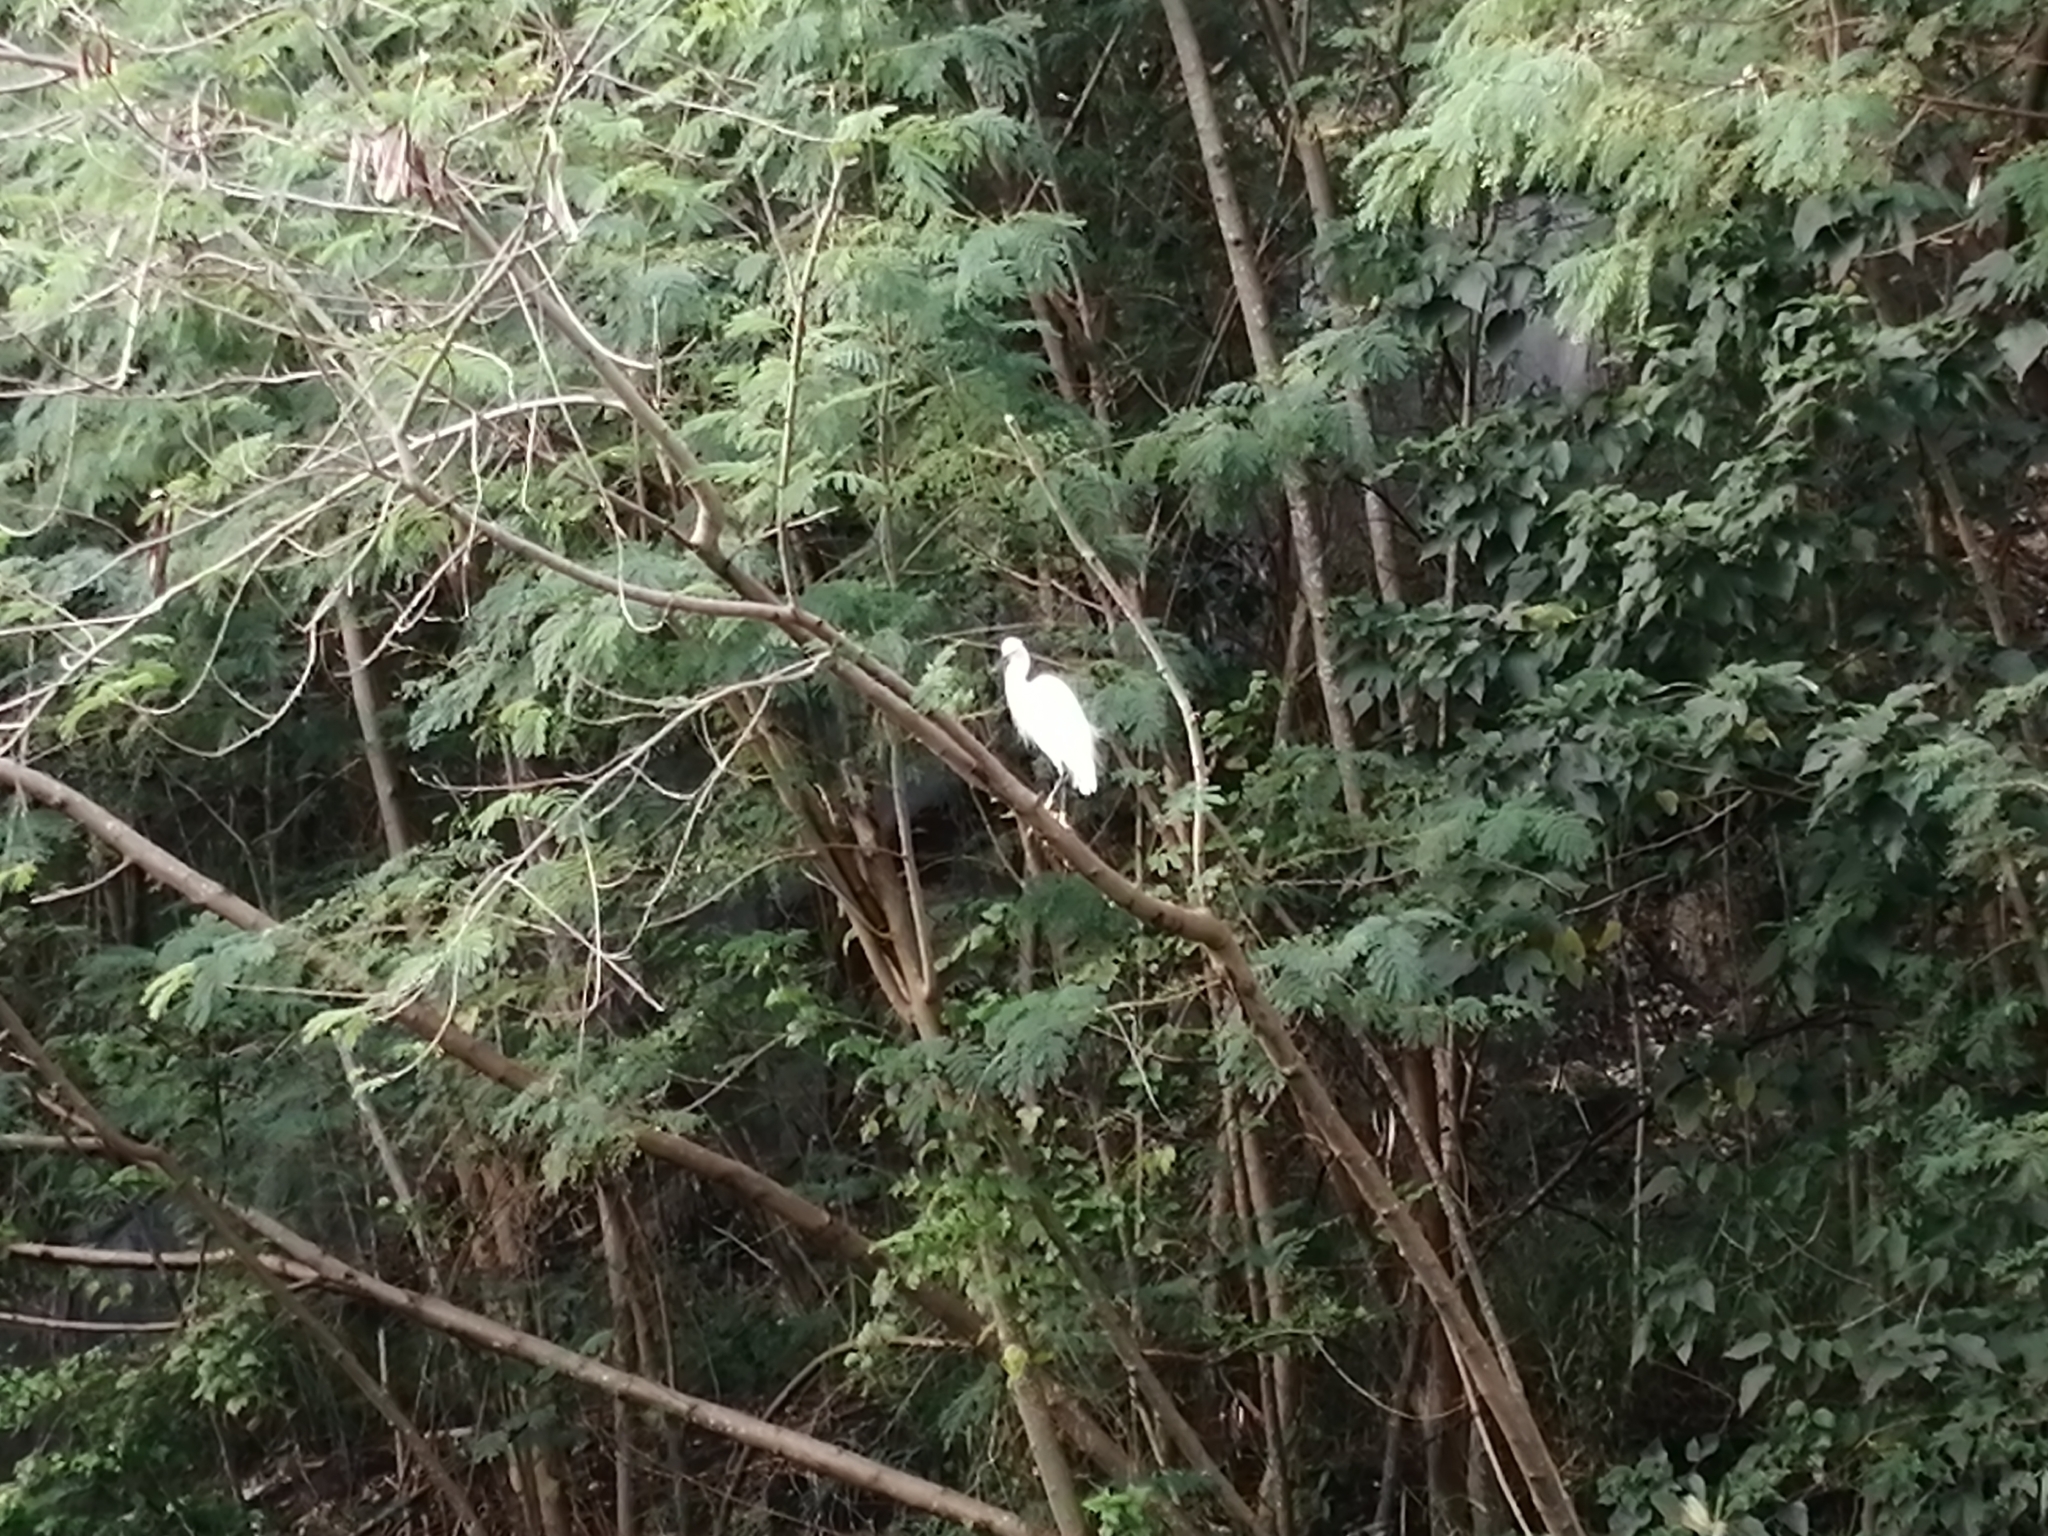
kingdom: Animalia
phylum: Chordata
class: Aves
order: Pelecaniformes
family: Ardeidae
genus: Egretta
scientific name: Egretta garzetta
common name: Little egret
